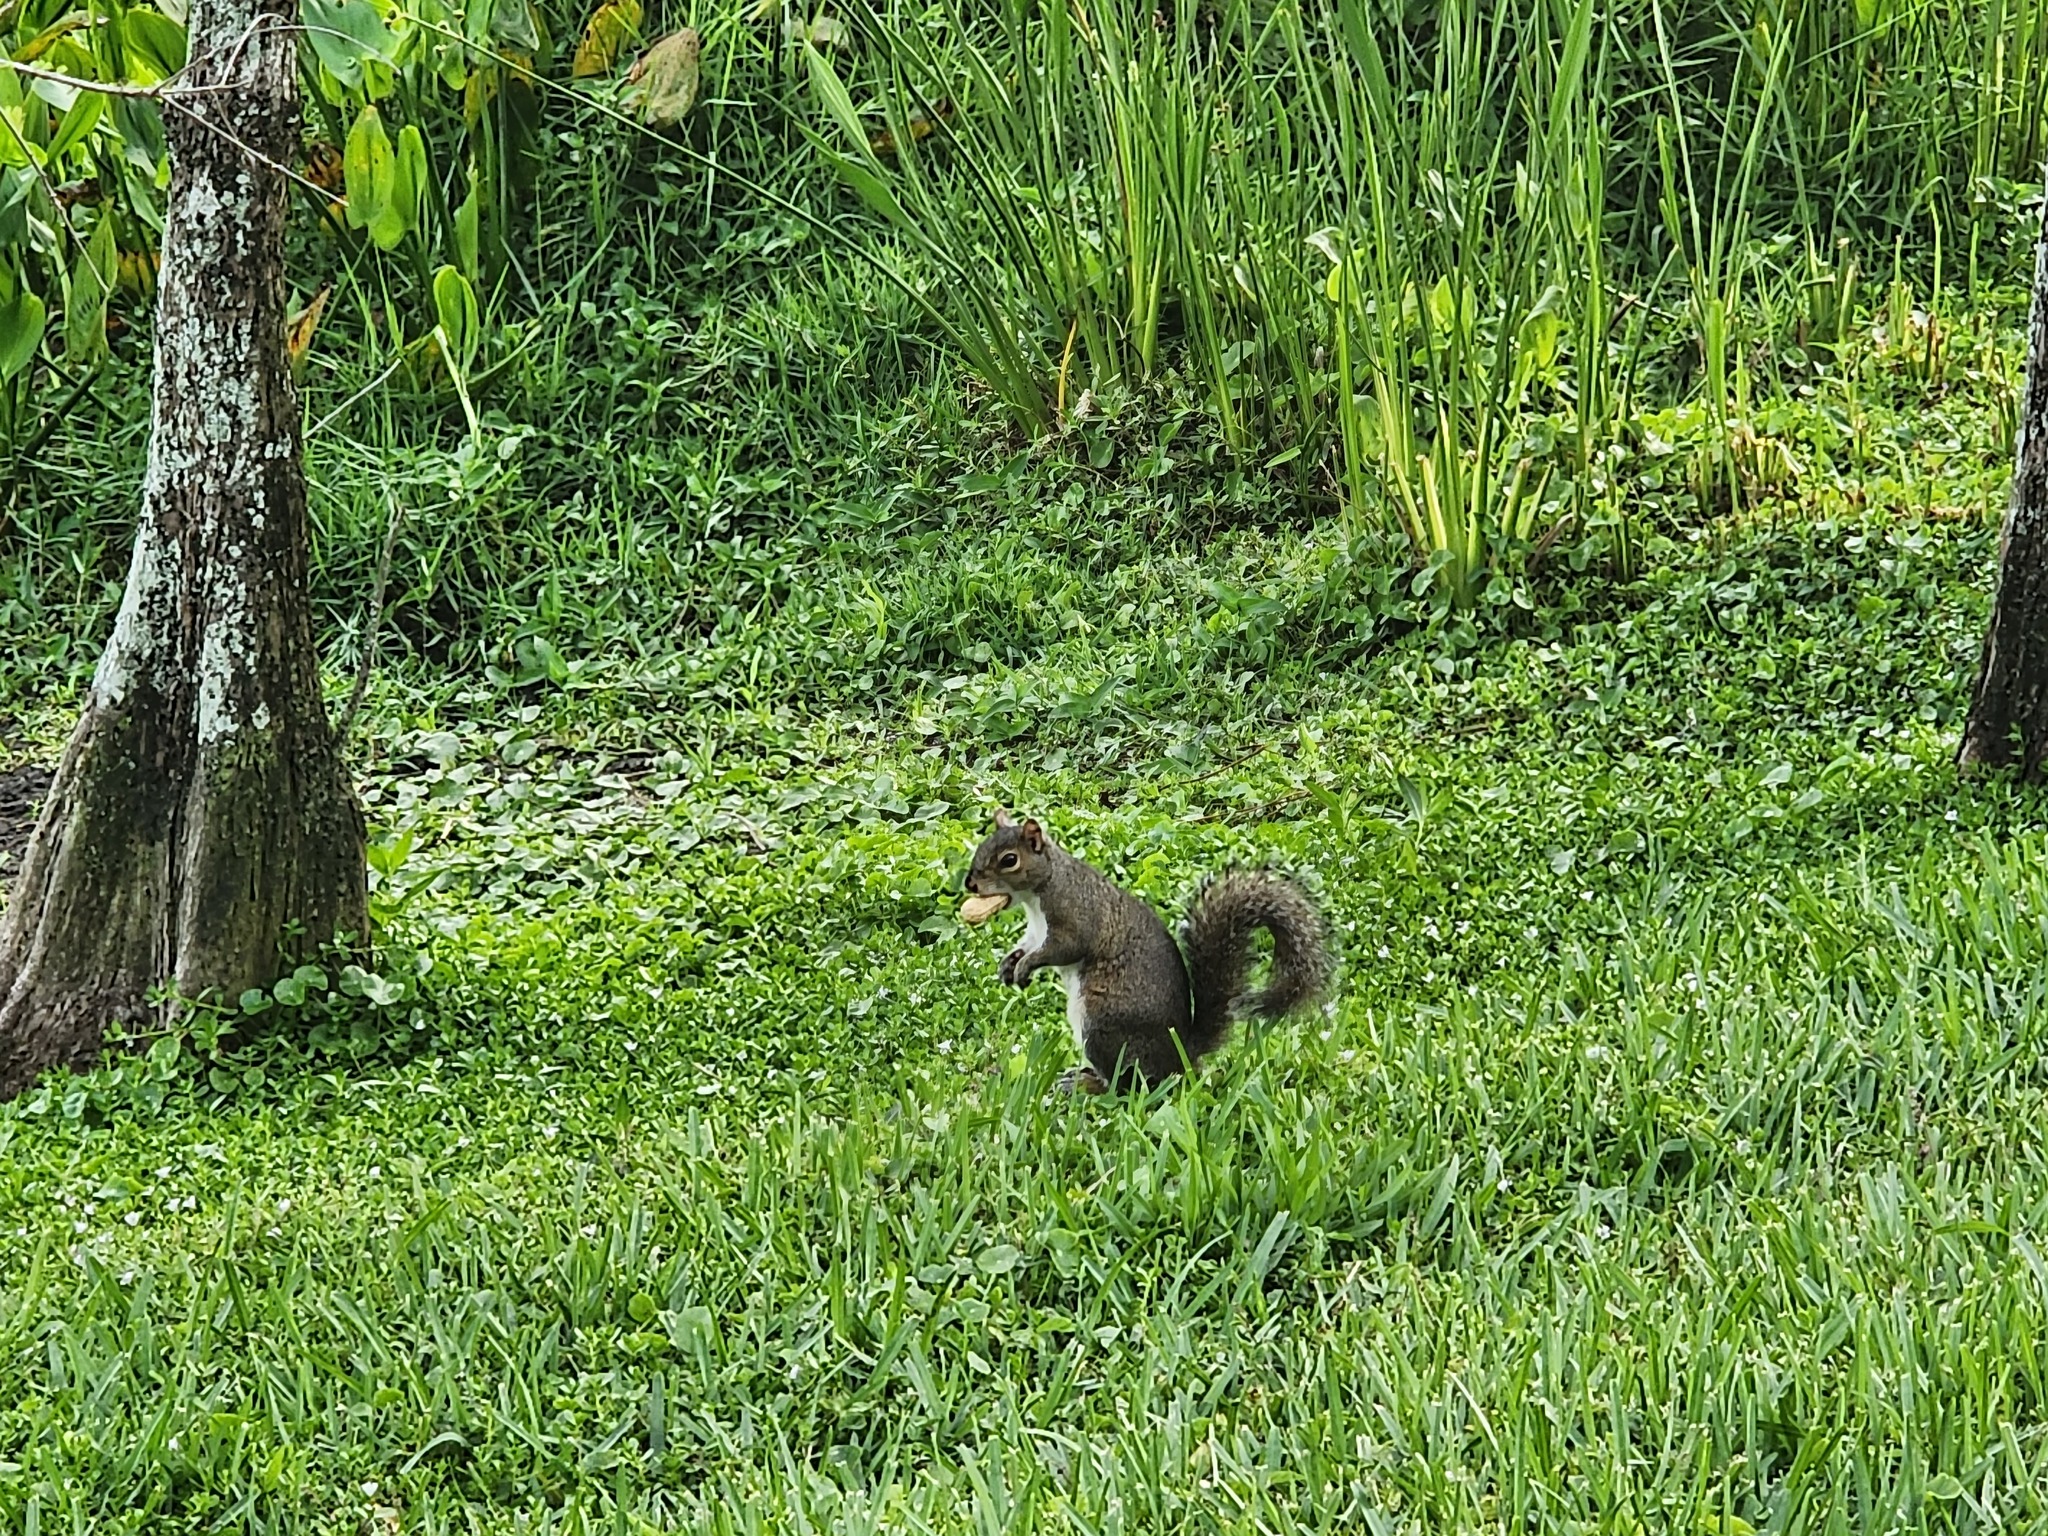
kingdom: Animalia
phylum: Chordata
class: Mammalia
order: Rodentia
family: Sciuridae
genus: Sciurus
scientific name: Sciurus carolinensis
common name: Eastern gray squirrel
